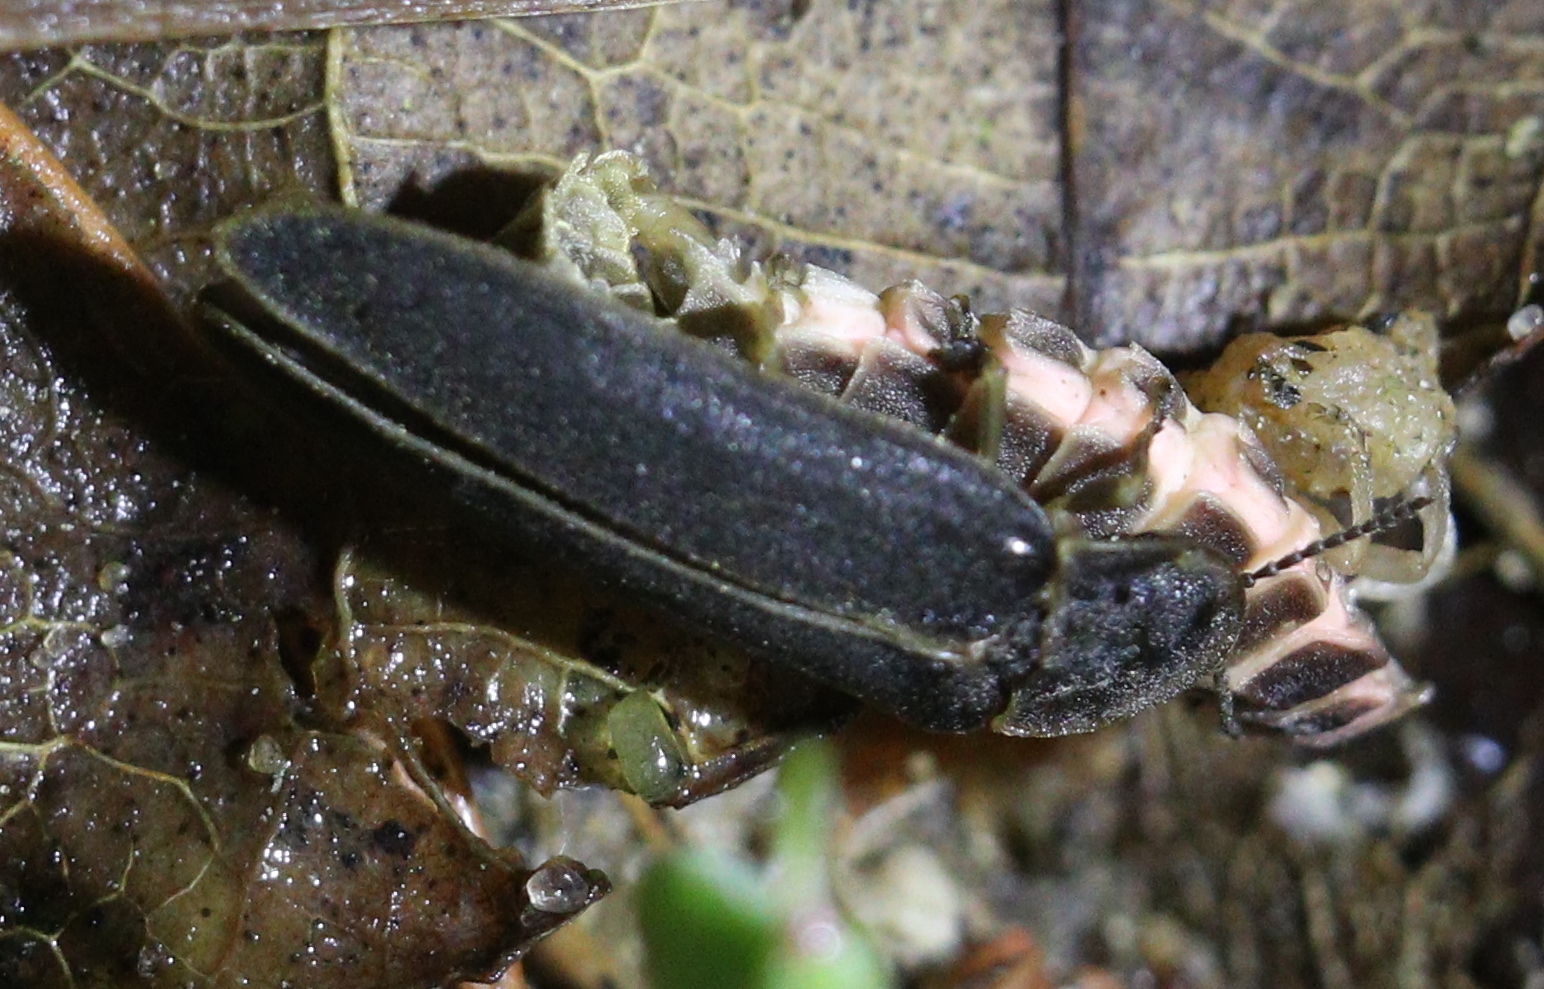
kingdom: Animalia
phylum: Arthropoda
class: Insecta
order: Coleoptera
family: Lampyridae
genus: Lampyris
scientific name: Lampyris noctiluca
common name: Glow-worm
